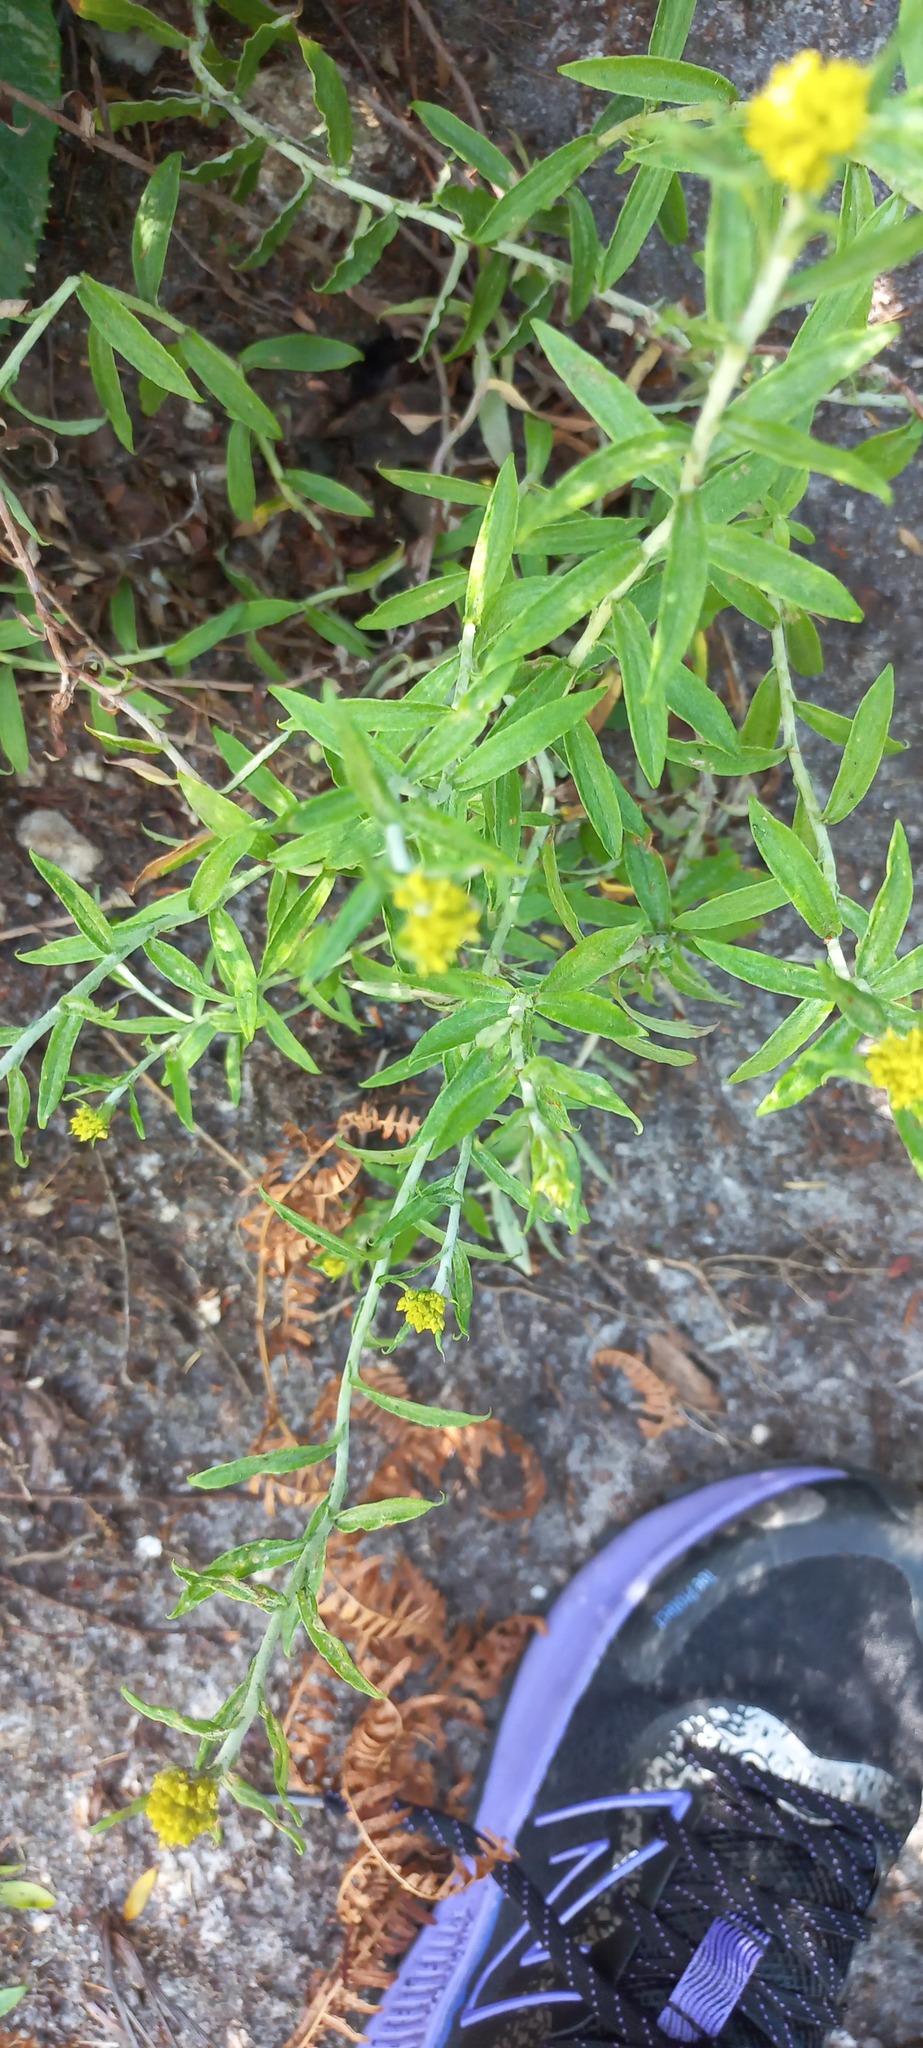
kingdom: Plantae
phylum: Tracheophyta
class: Magnoliopsida
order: Asterales
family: Asteraceae
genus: Helichrysum
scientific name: Helichrysum cymosum
